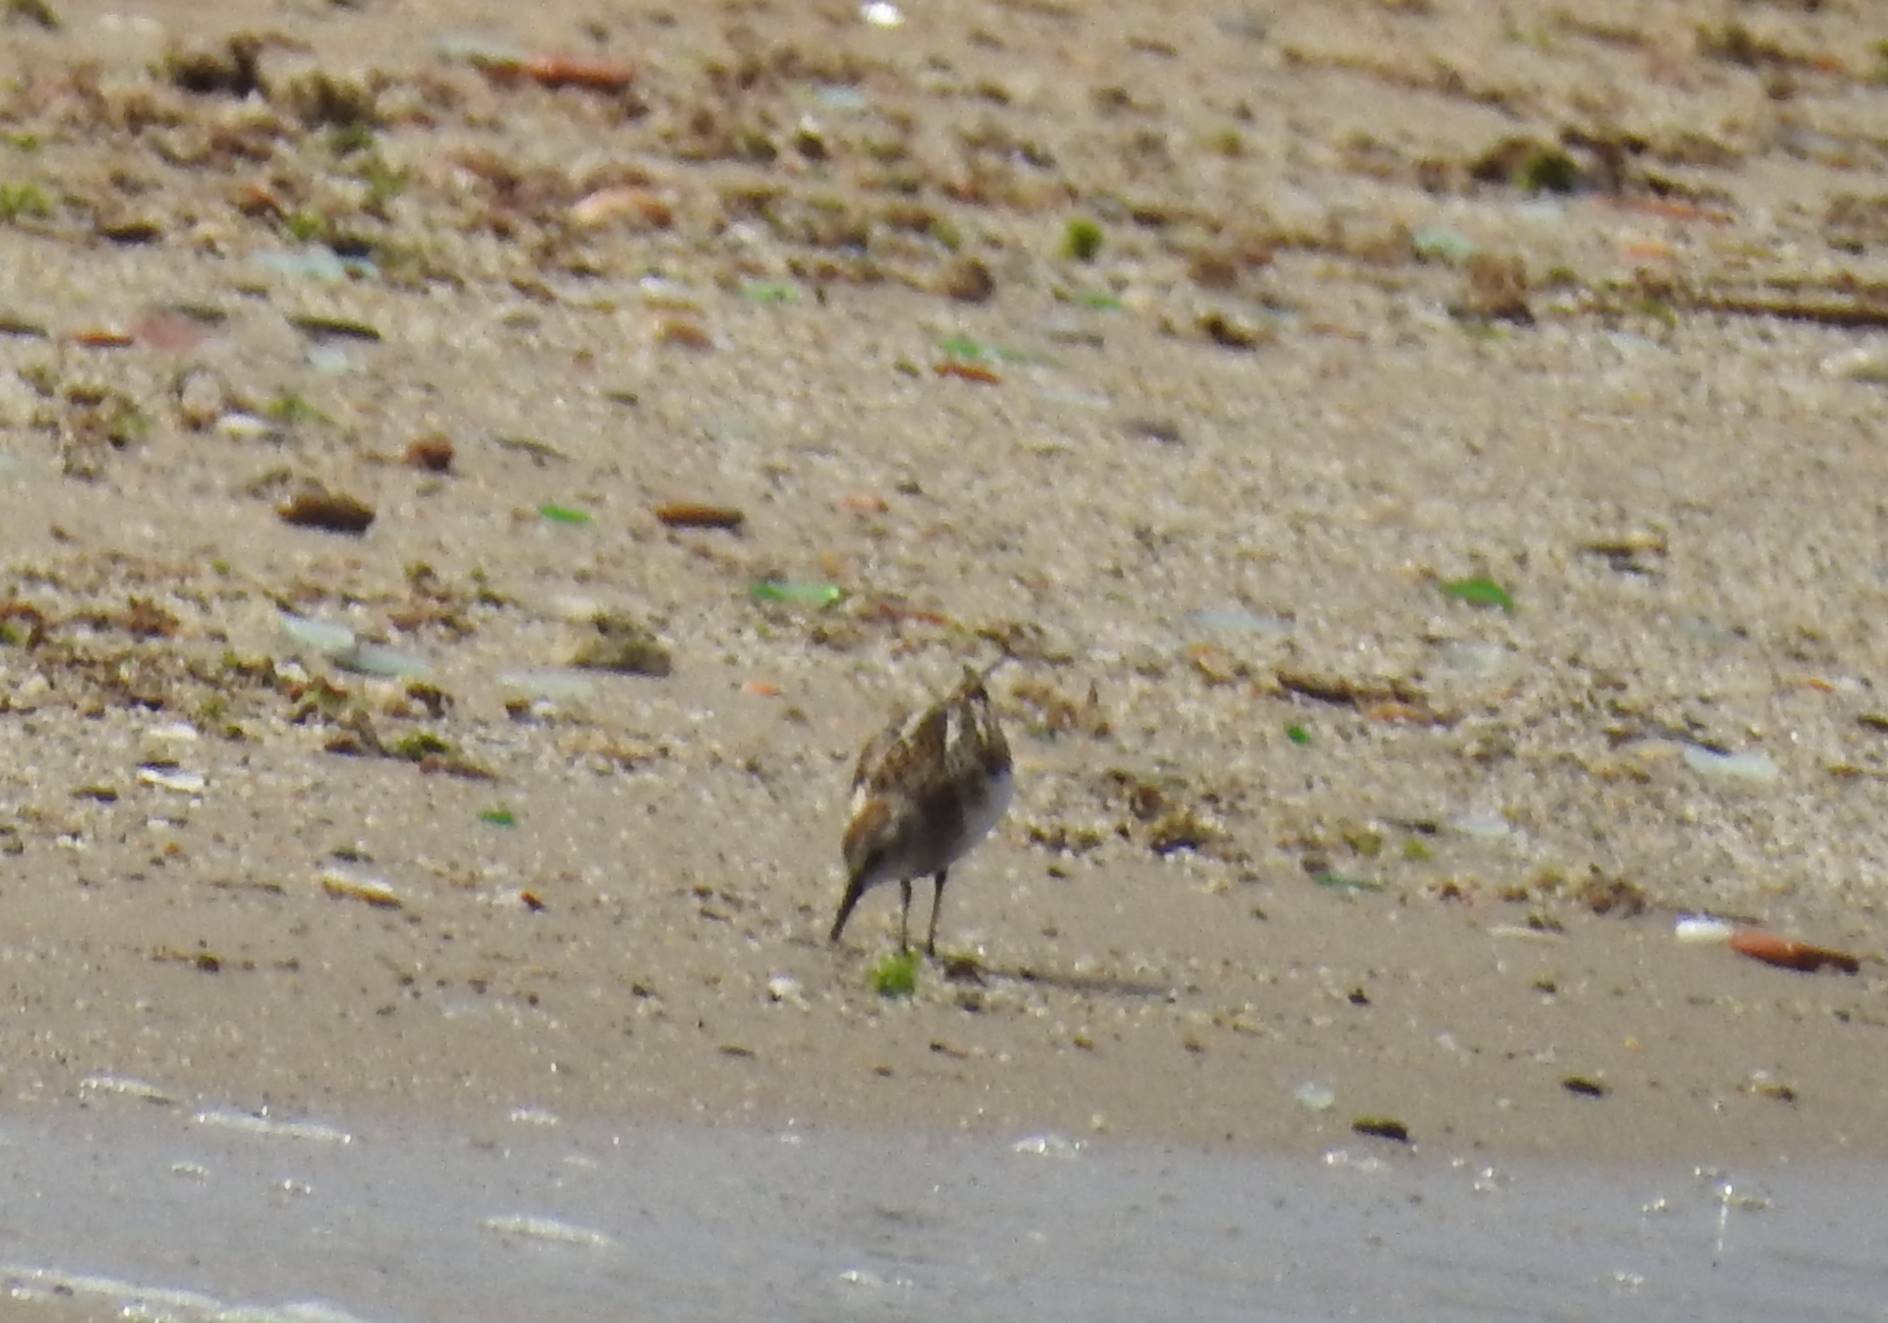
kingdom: Animalia
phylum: Chordata
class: Aves
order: Charadriiformes
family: Scolopacidae
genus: Calidris
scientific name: Calidris alpina
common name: Dunlin
